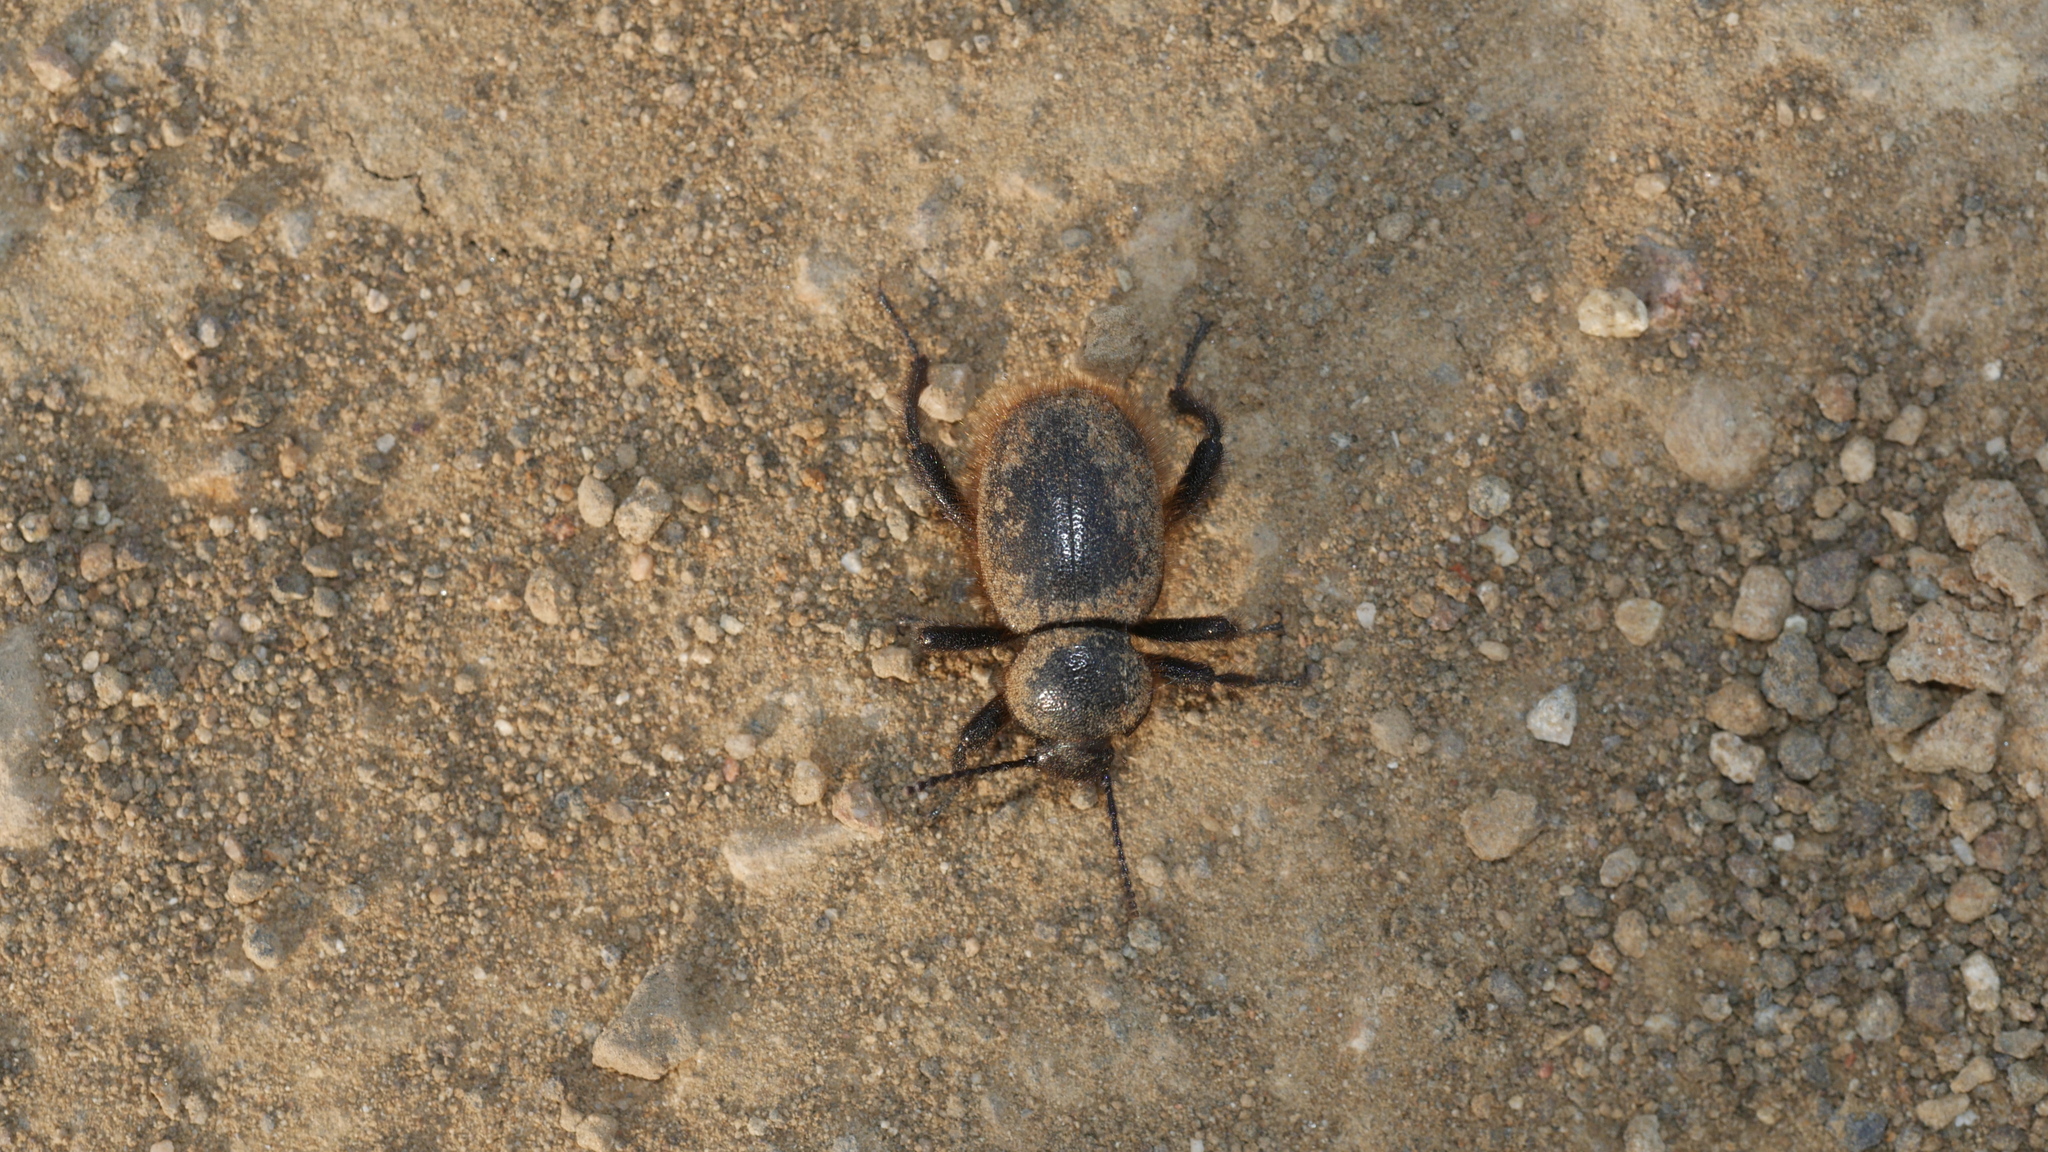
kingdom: Animalia
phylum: Arthropoda
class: Insecta
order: Coleoptera
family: Tenebrionidae
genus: Eleodes
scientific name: Eleodes osculans
